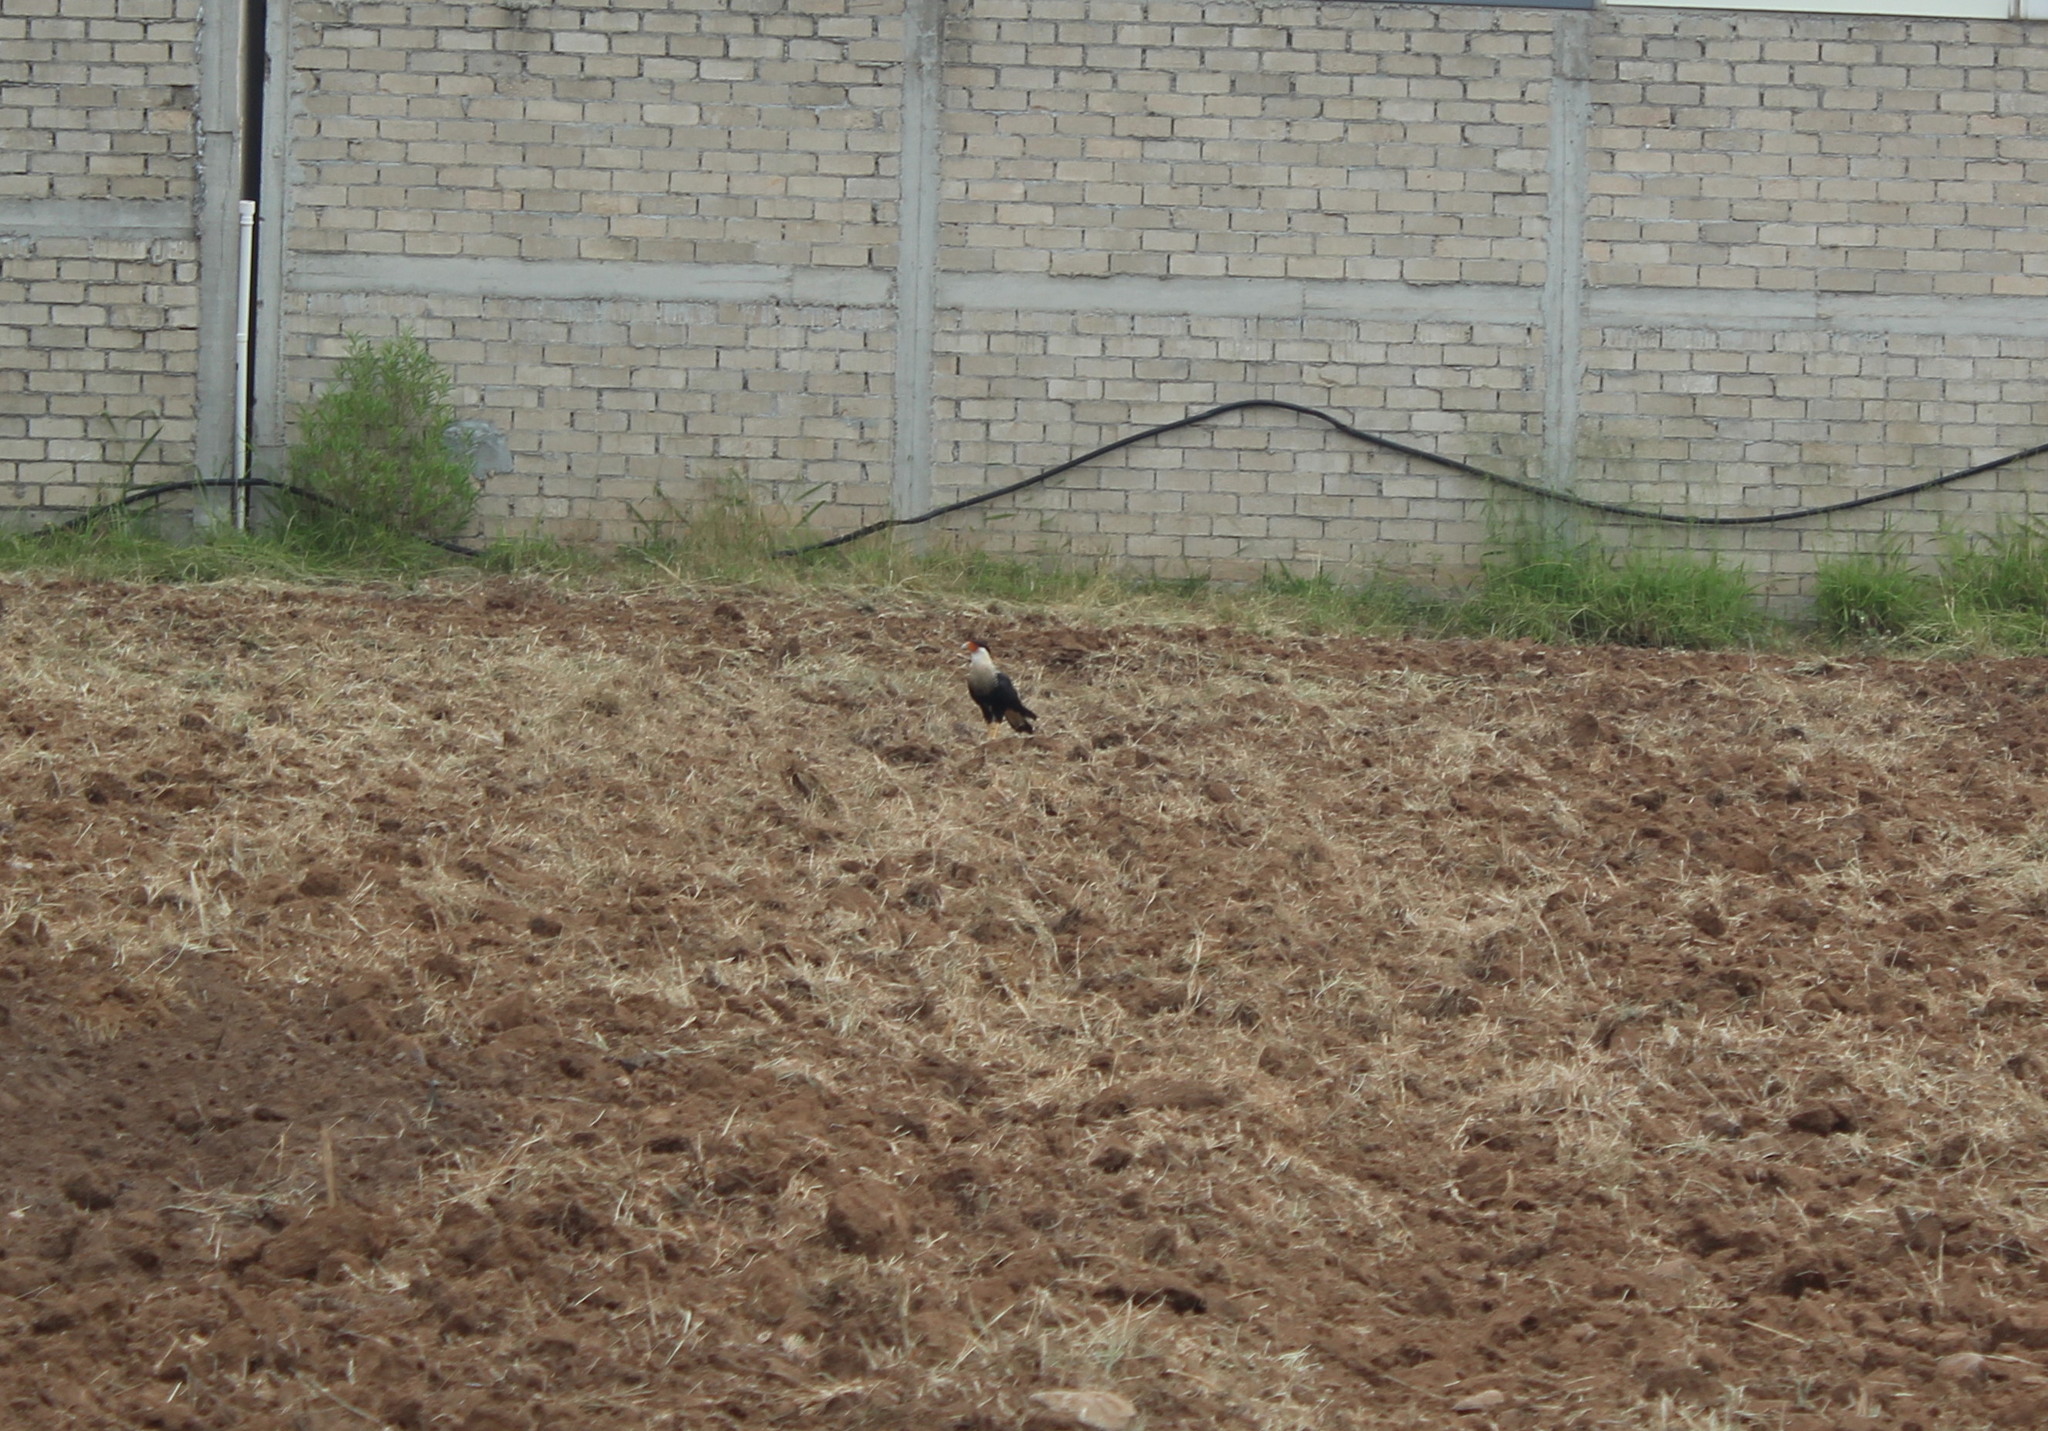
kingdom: Animalia
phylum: Chordata
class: Aves
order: Falconiformes
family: Falconidae
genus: Caracara
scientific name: Caracara plancus
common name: Southern caracara
